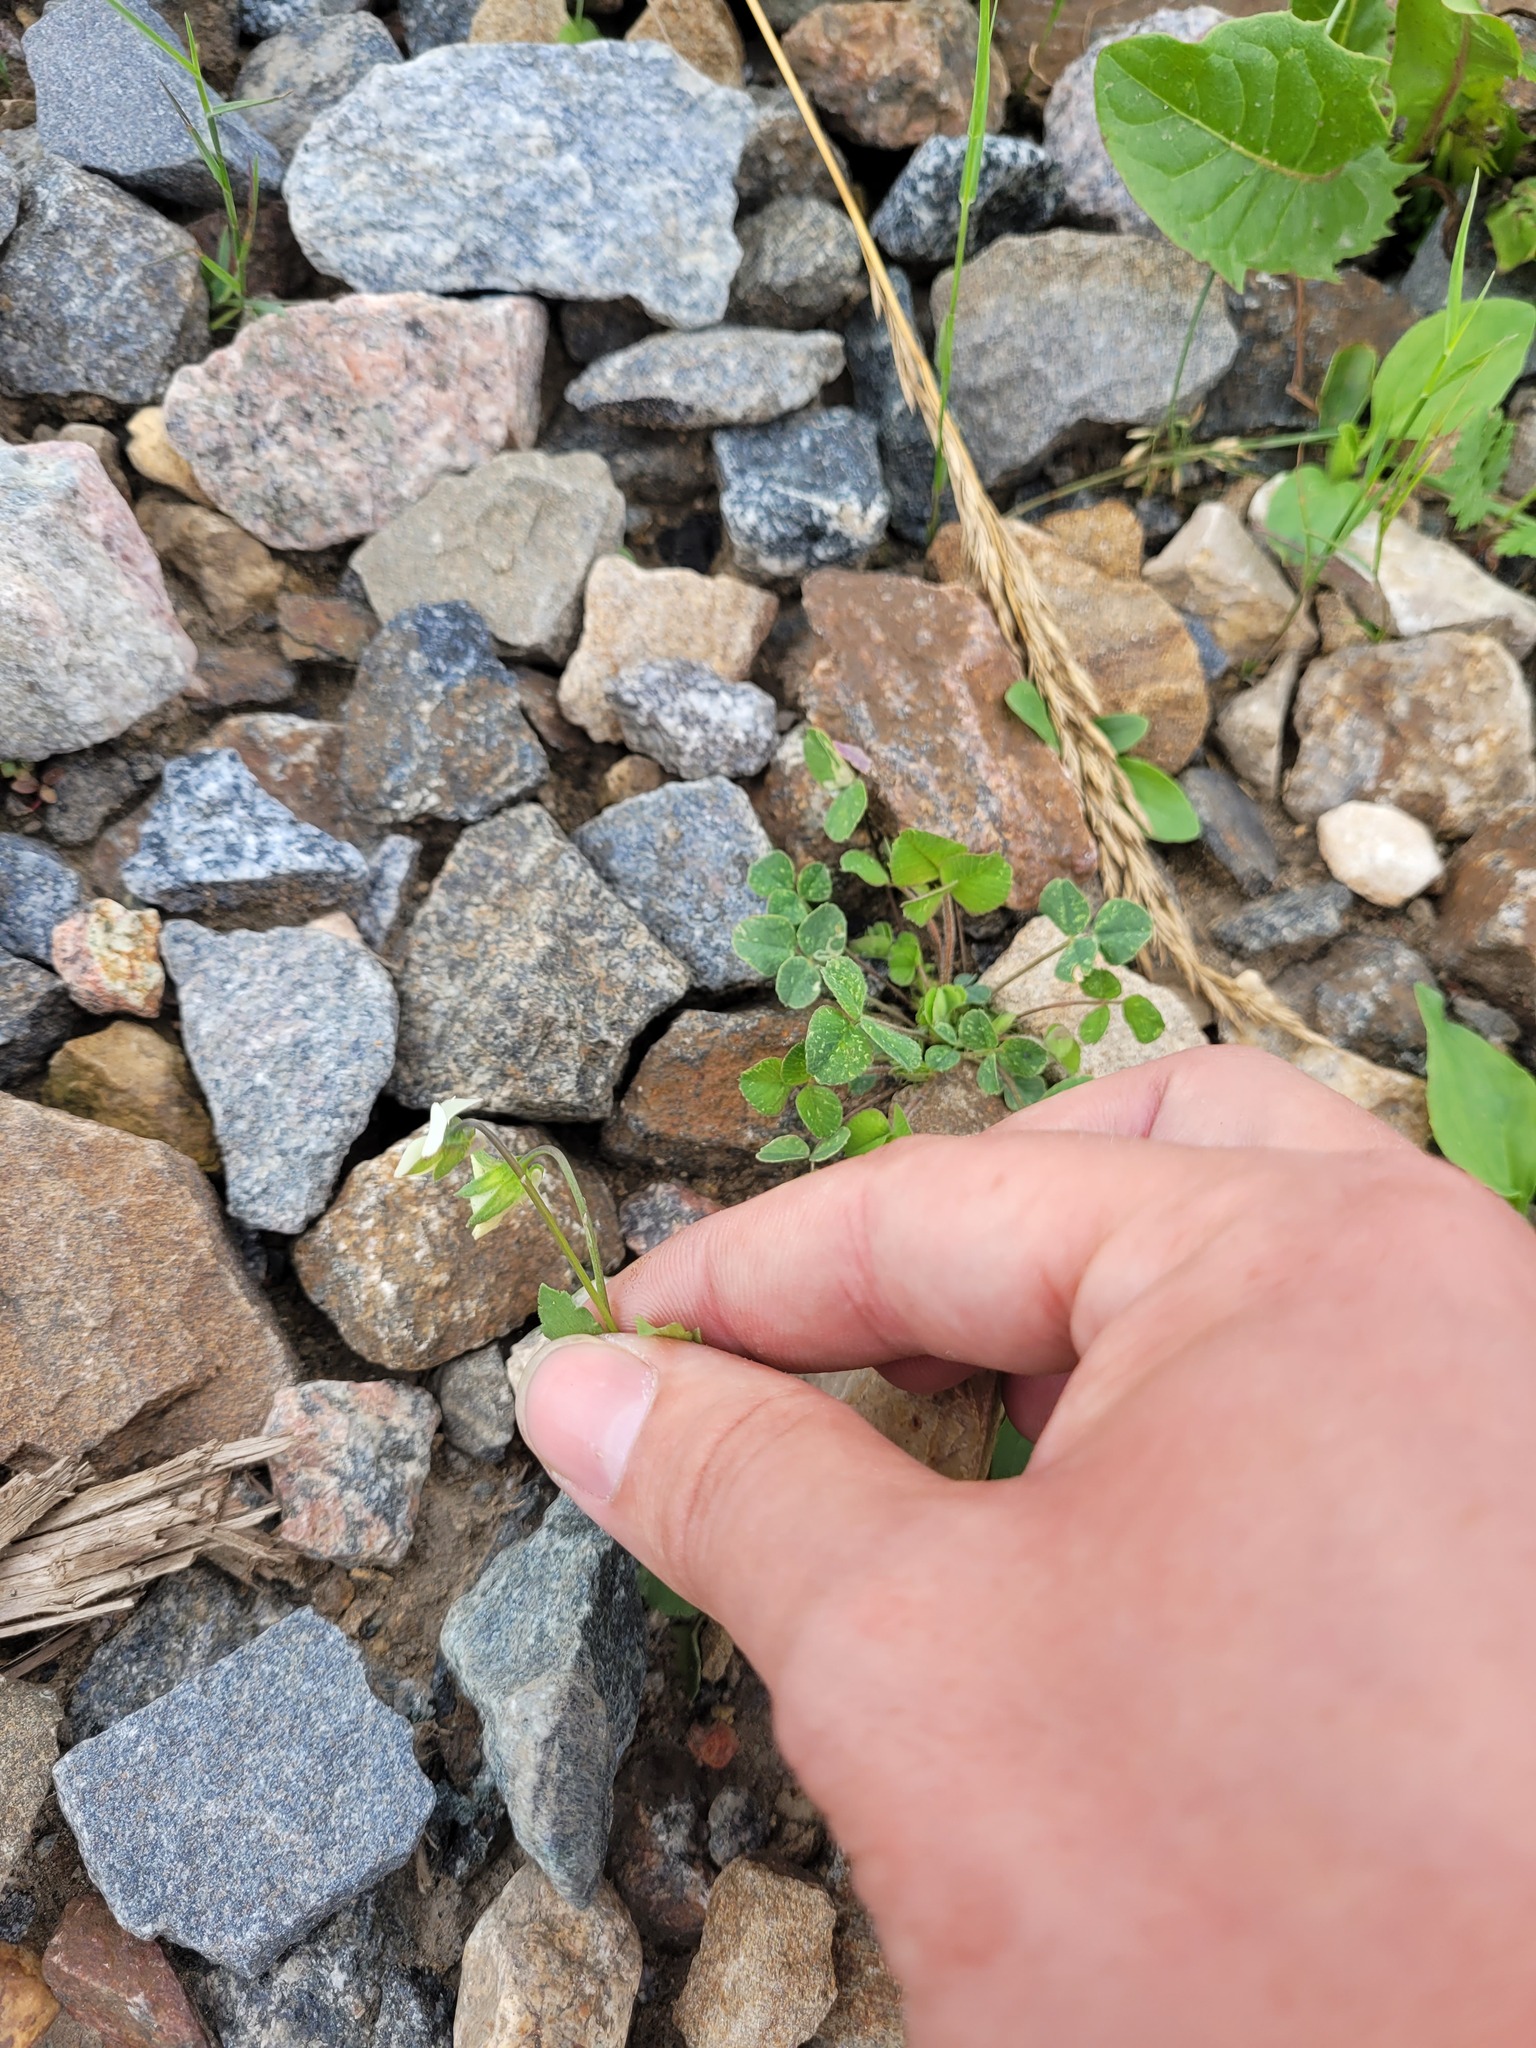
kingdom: Plantae
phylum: Tracheophyta
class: Magnoliopsida
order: Malpighiales
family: Violaceae
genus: Viola
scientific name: Viola contempta
